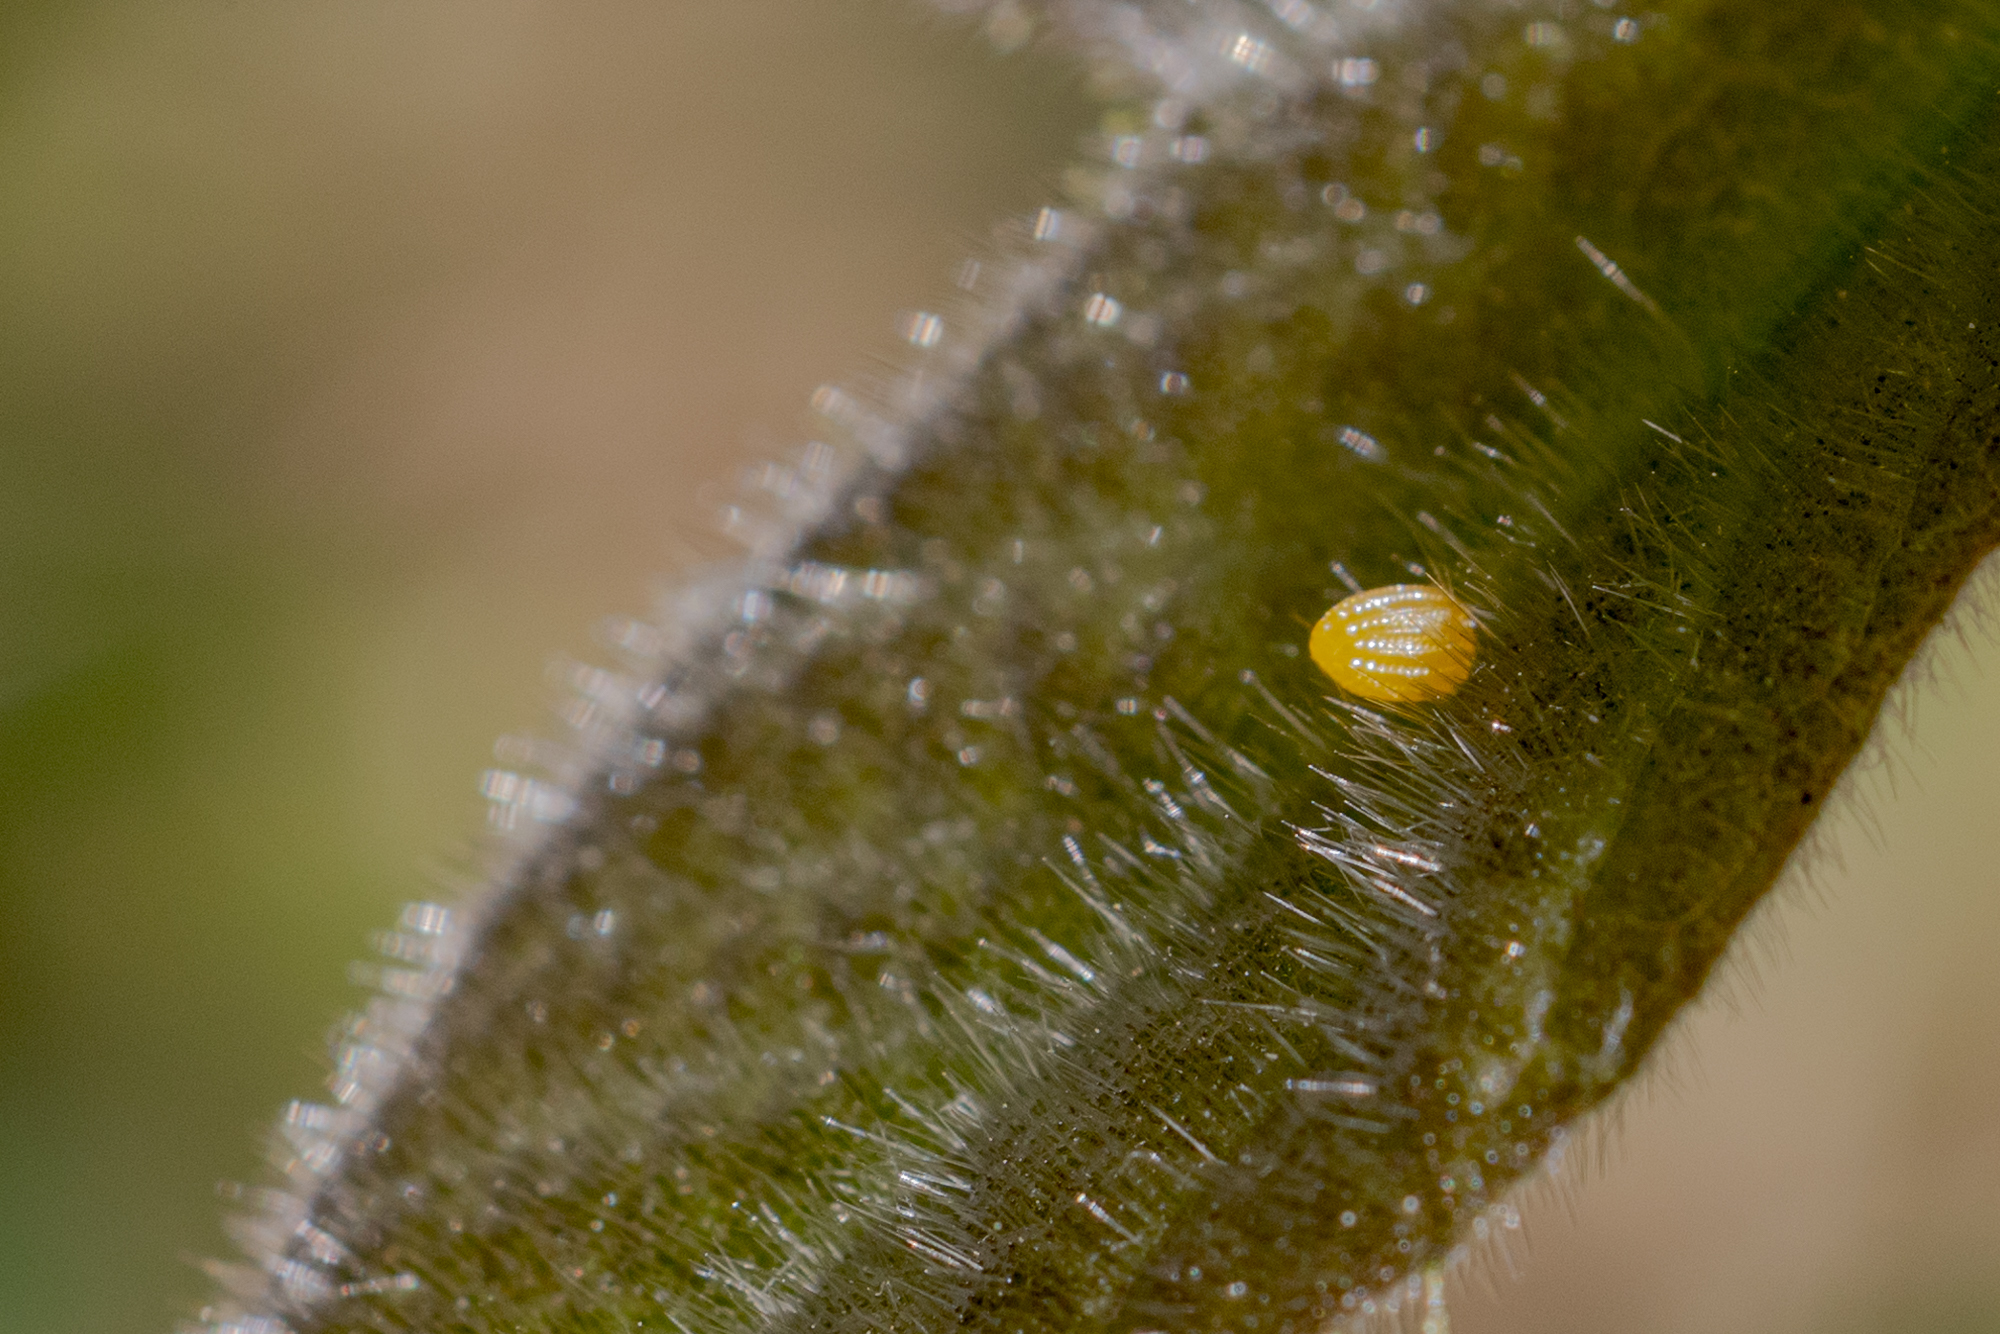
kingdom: Animalia
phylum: Arthropoda
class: Insecta
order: Lepidoptera
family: Nymphalidae
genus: Dione
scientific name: Dione vanillae
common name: Gulf fritillary
